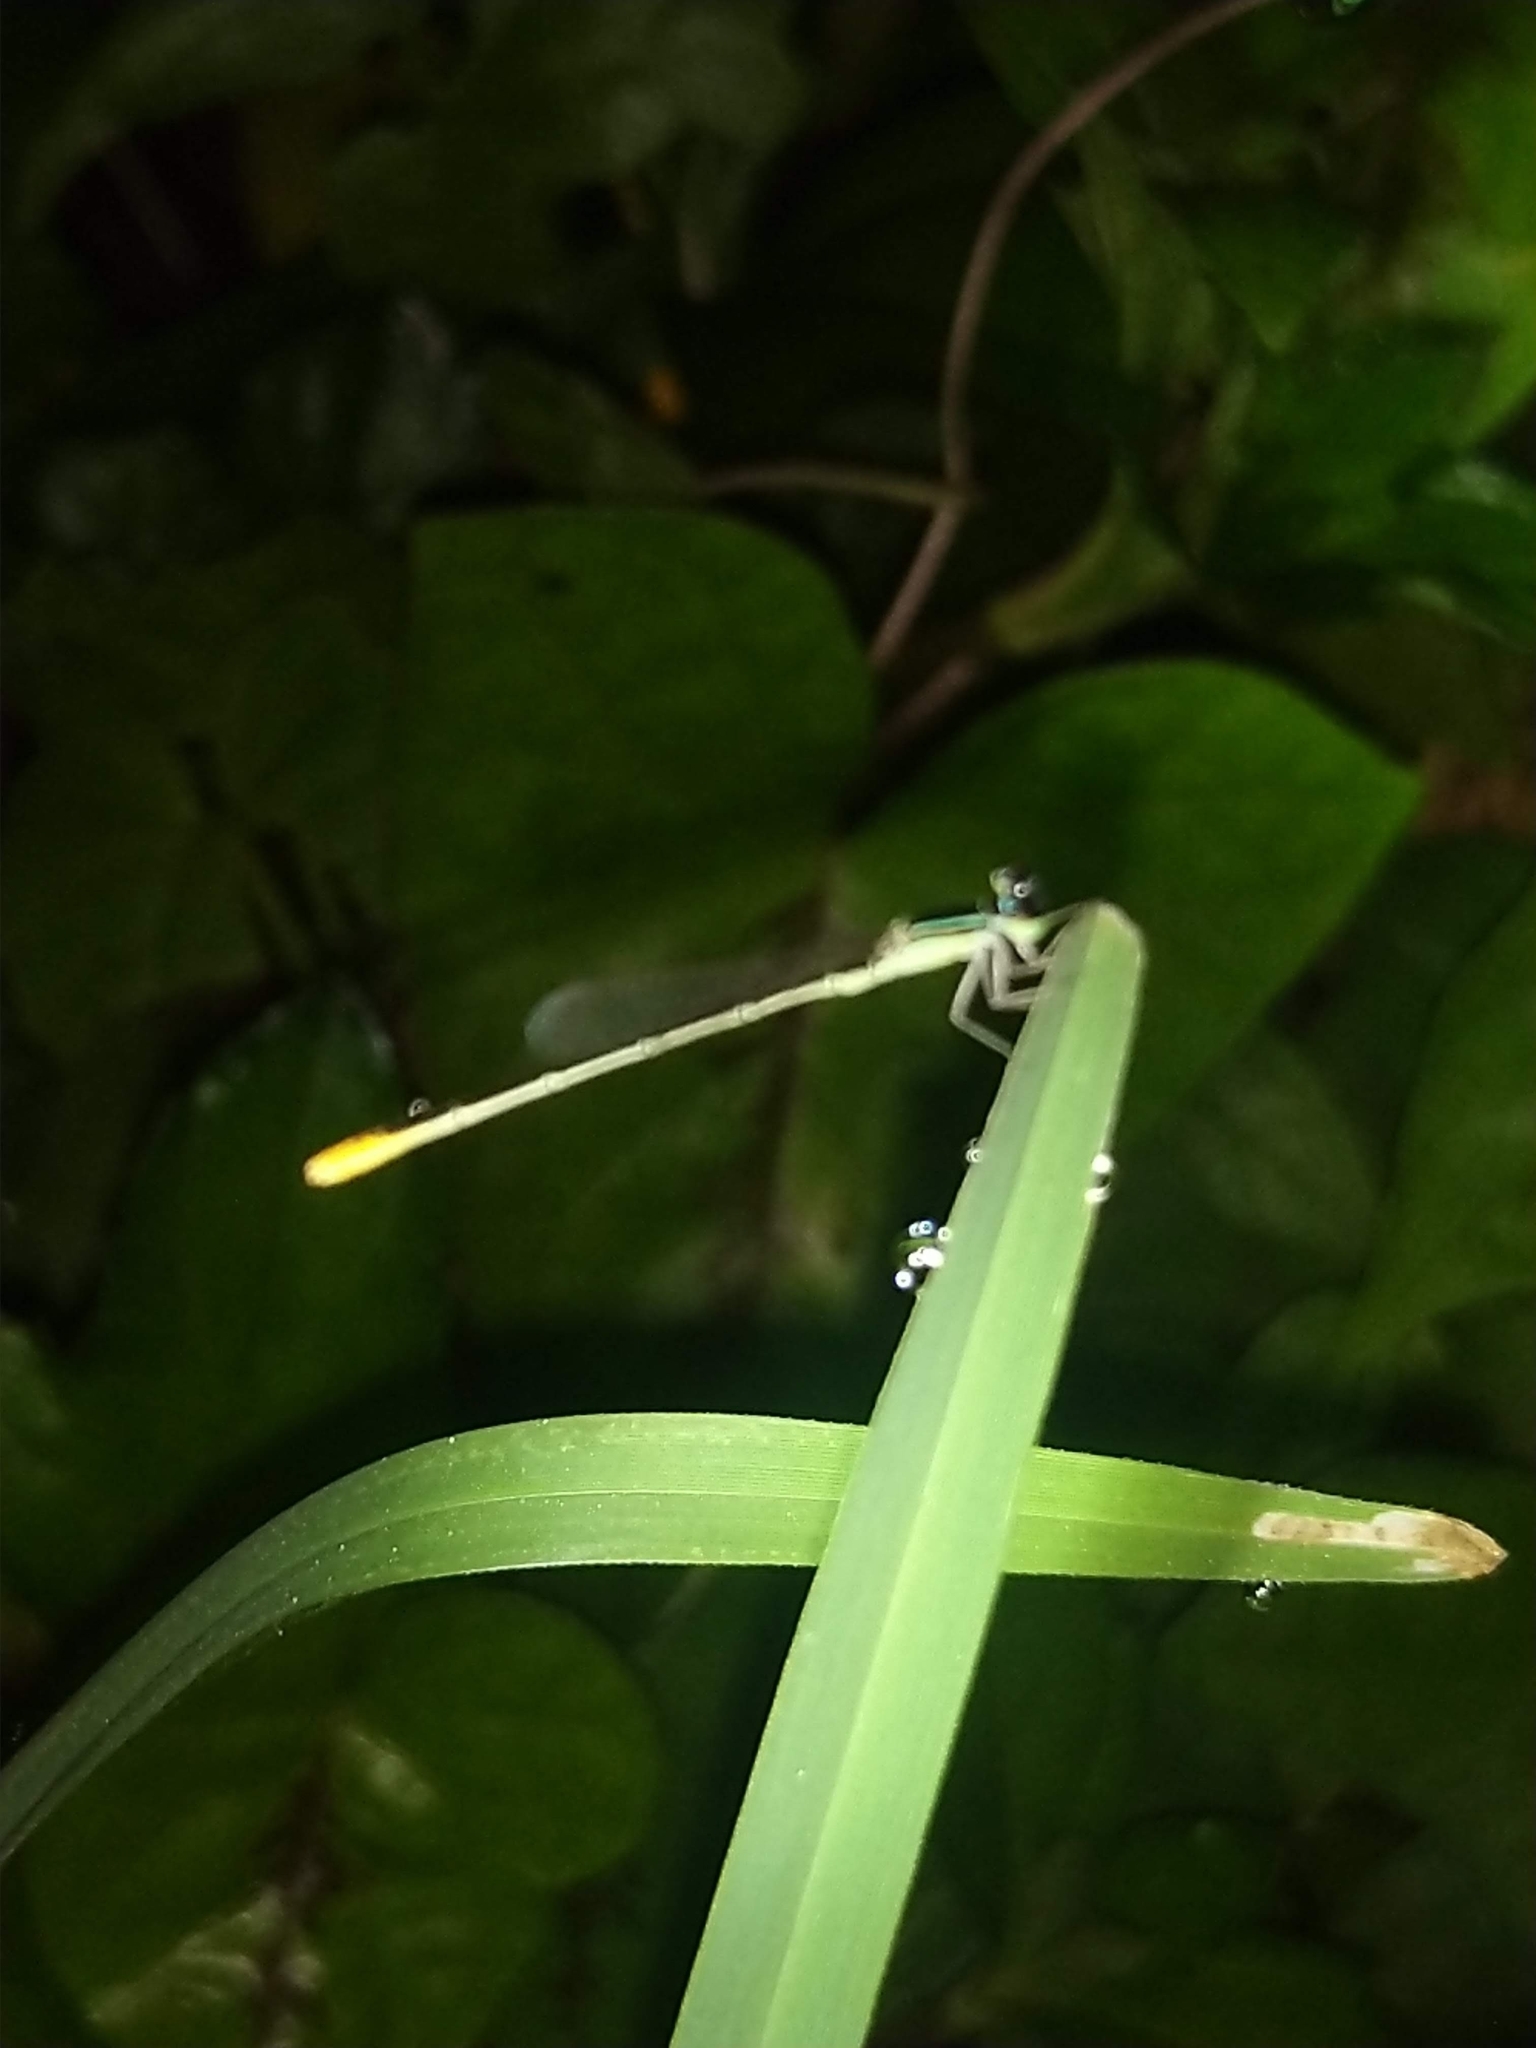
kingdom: Animalia
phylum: Arthropoda
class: Insecta
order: Odonata
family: Coenagrionidae
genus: Agriocnemis
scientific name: Agriocnemis pygmaea
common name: Pygmy wisp
